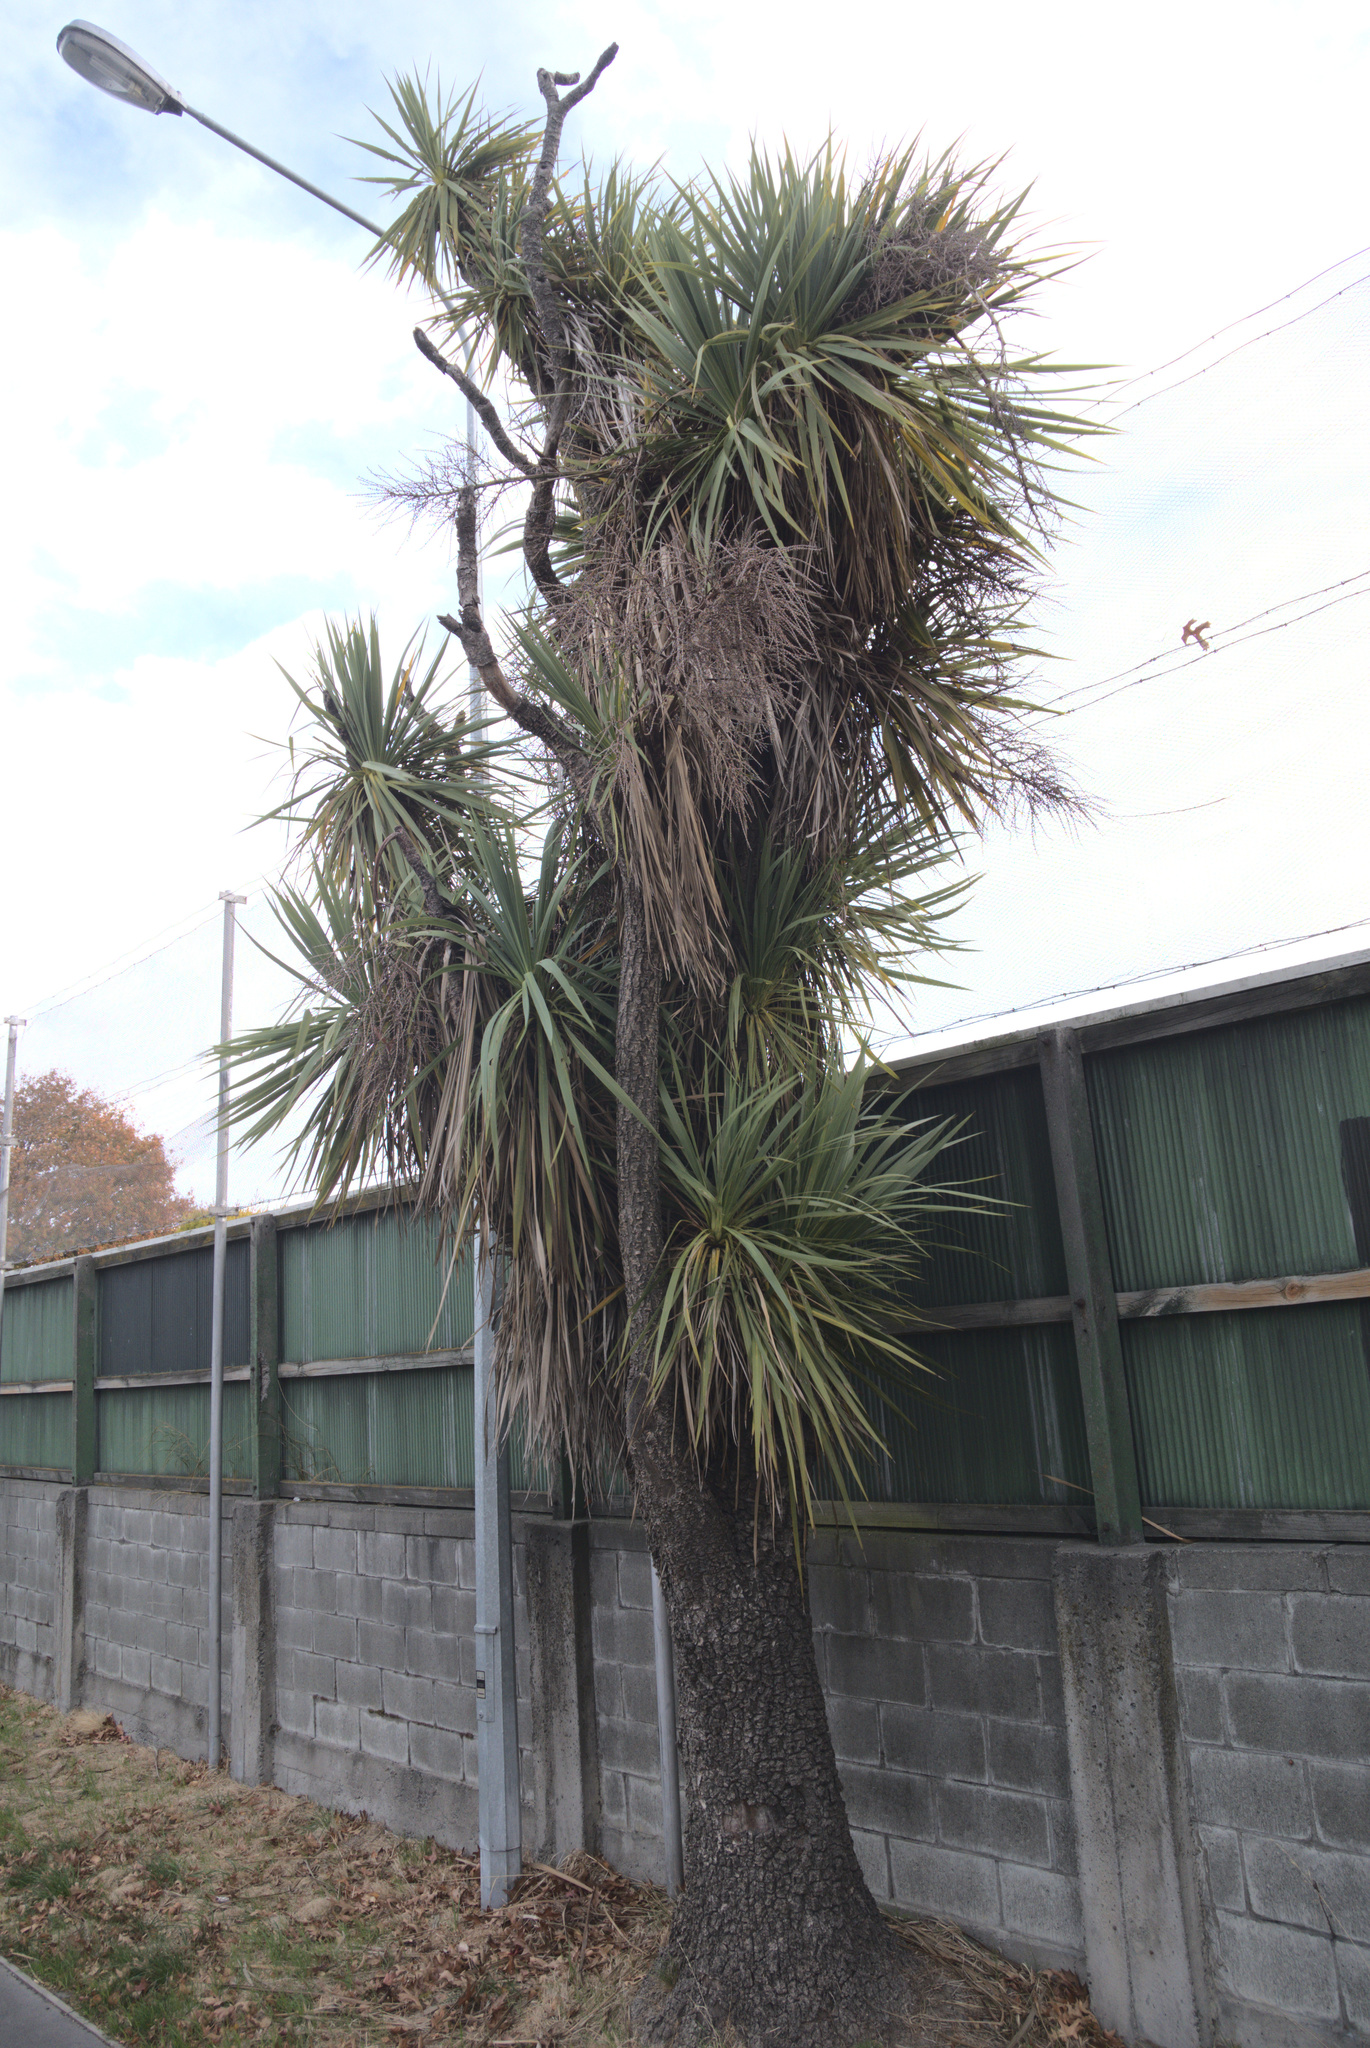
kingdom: Plantae
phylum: Tracheophyta
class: Liliopsida
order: Asparagales
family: Asparagaceae
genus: Cordyline
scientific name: Cordyline australis
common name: Cabbage-palm
